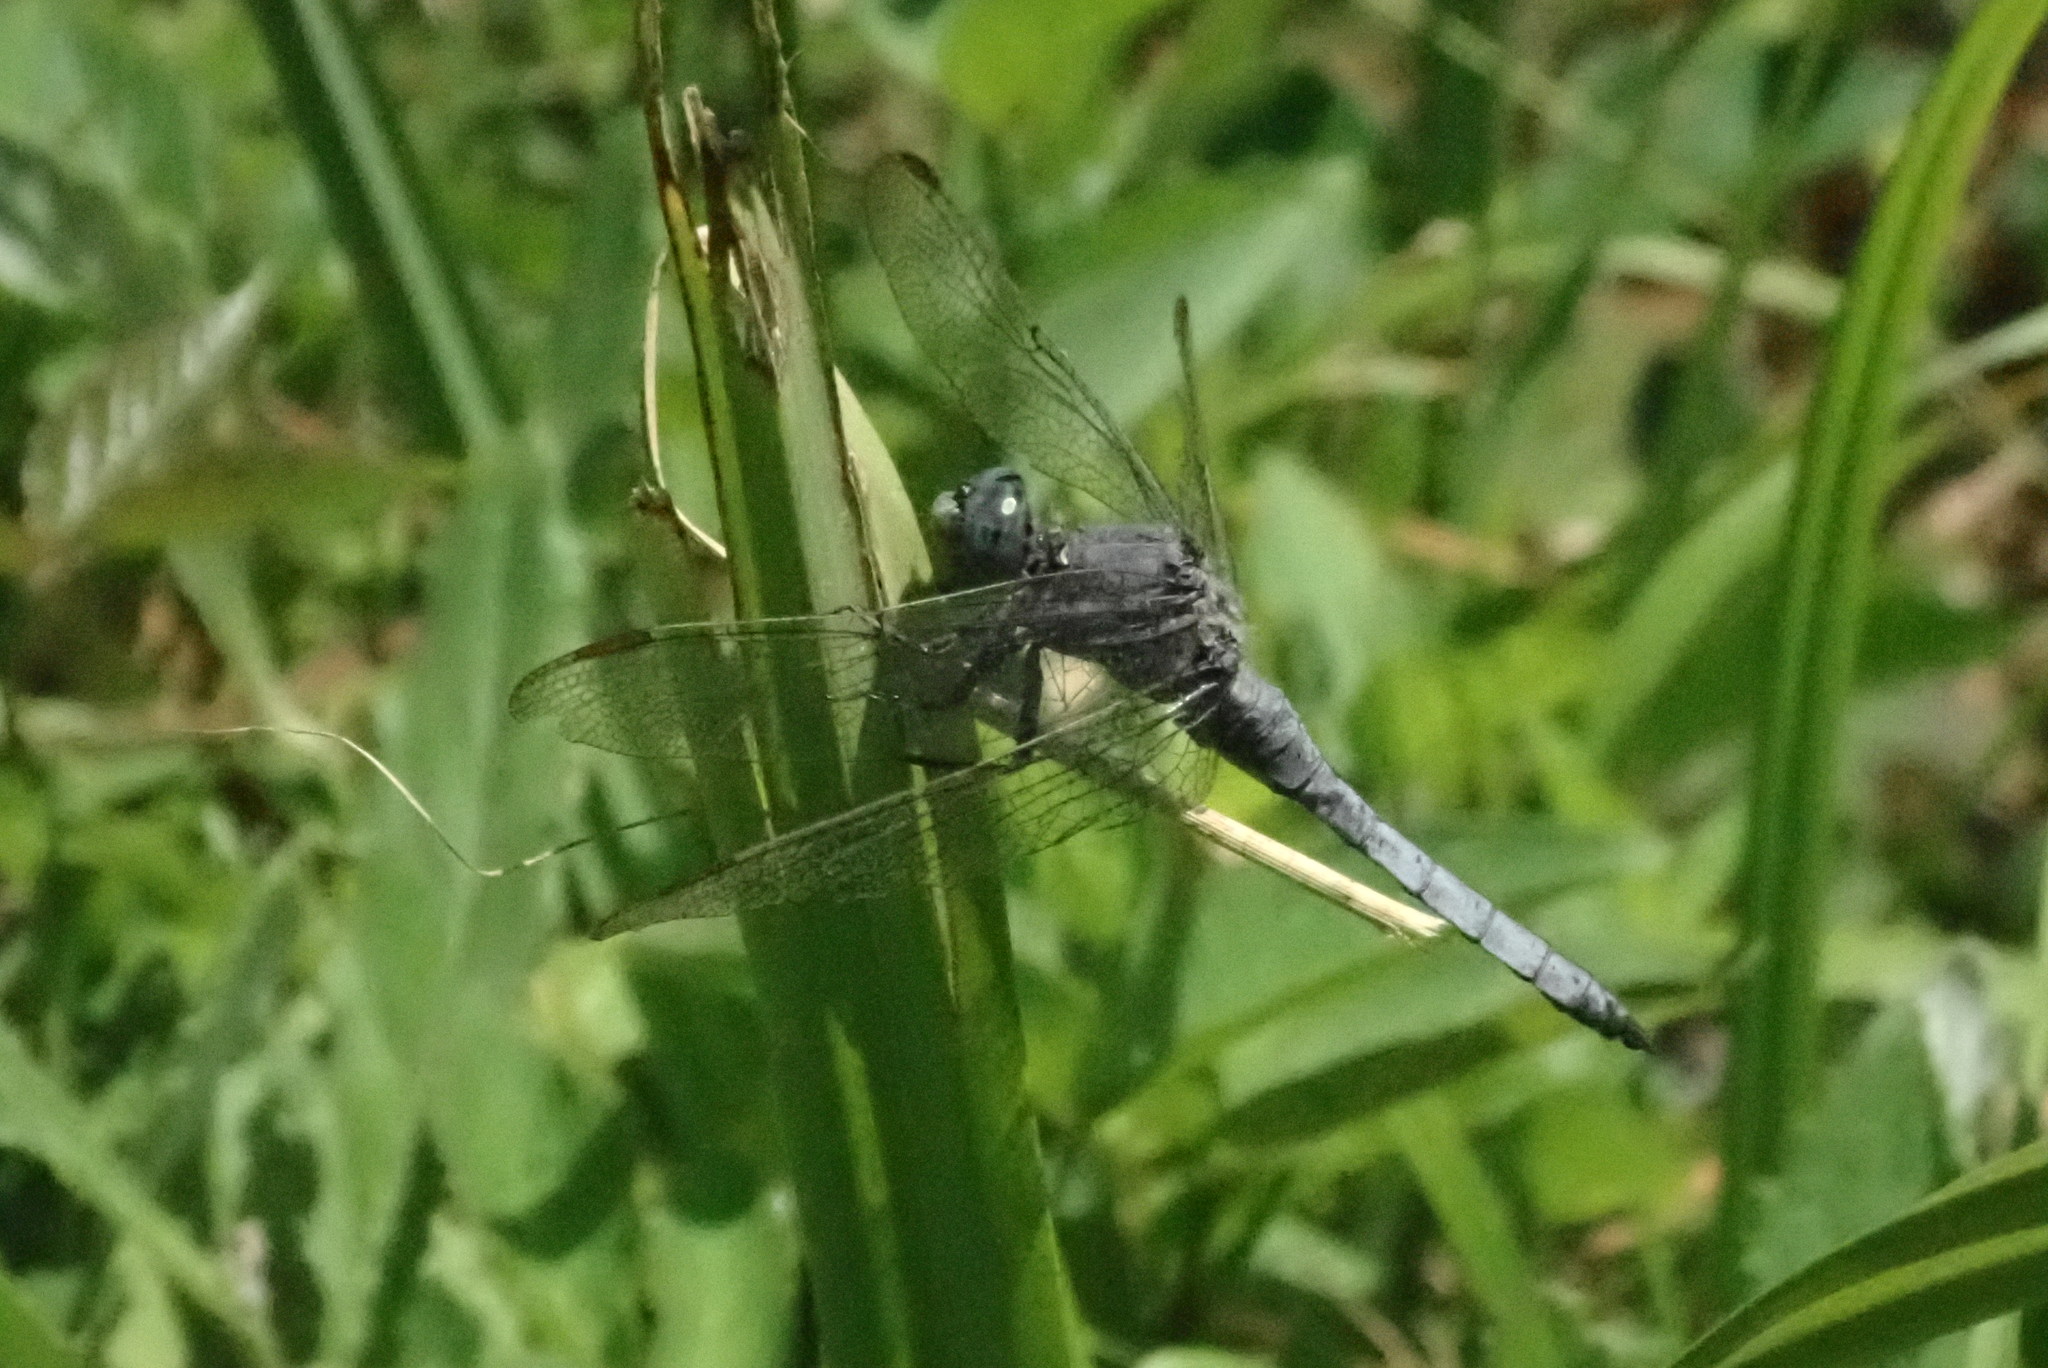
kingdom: Animalia
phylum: Arthropoda
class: Insecta
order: Odonata
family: Libellulidae
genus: Orthetrum
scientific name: Orthetrum coerulescens
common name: Keeled skimmer
